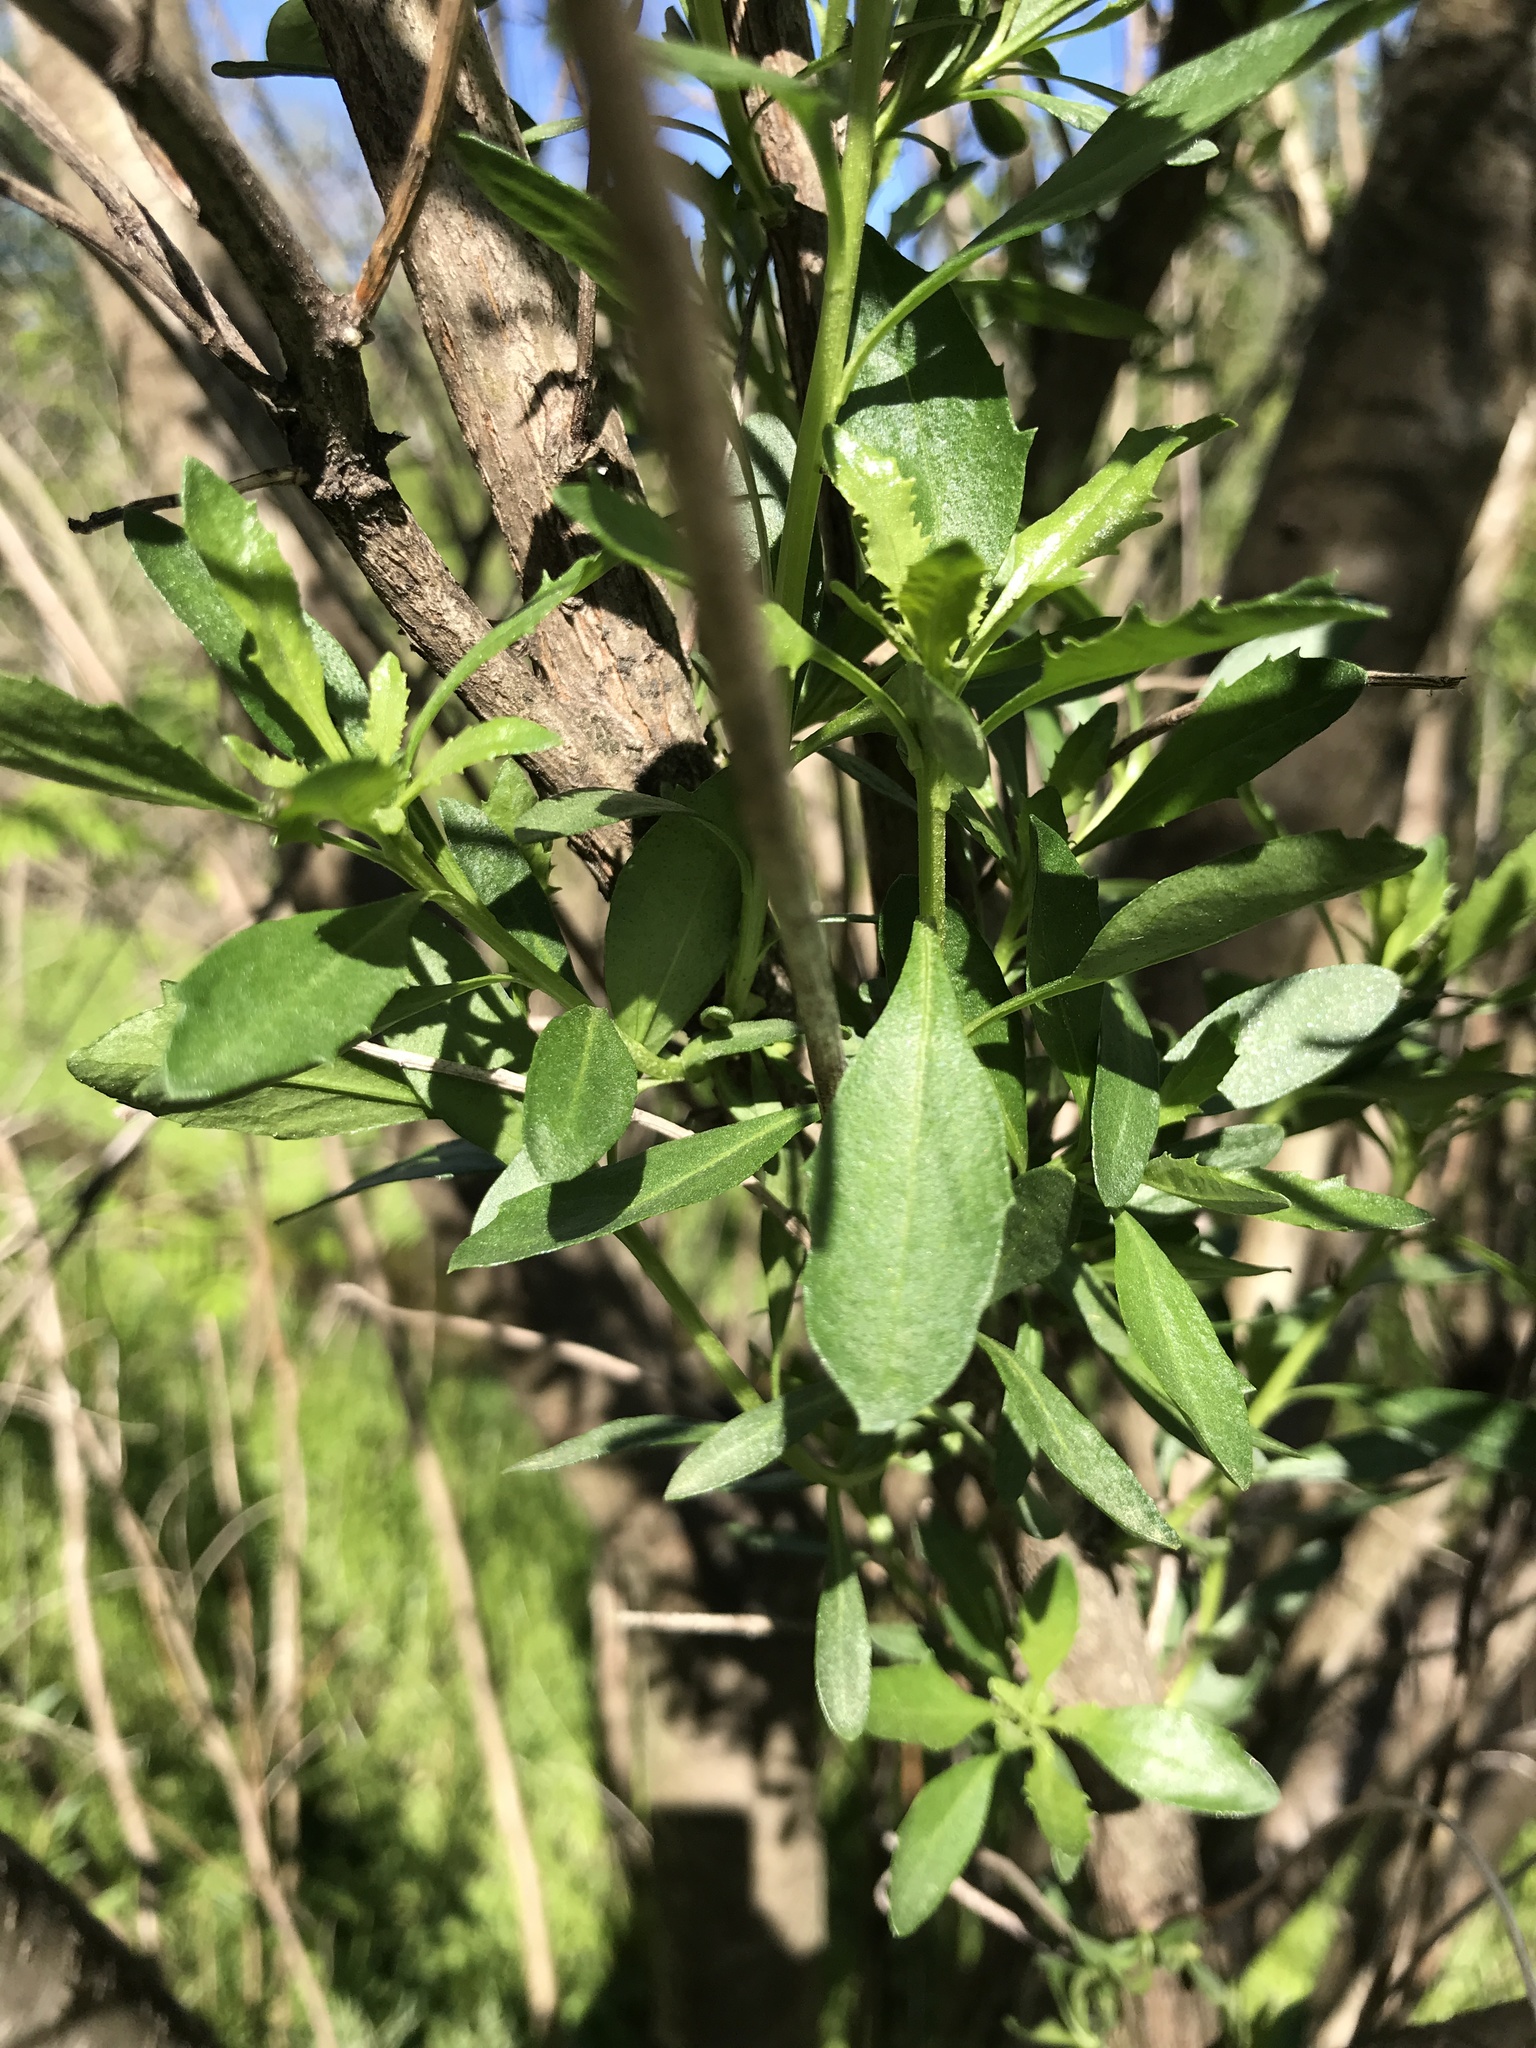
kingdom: Plantae
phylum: Tracheophyta
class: Magnoliopsida
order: Asterales
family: Asteraceae
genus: Baccharis
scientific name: Baccharis halimifolia
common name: Eastern baccharis
